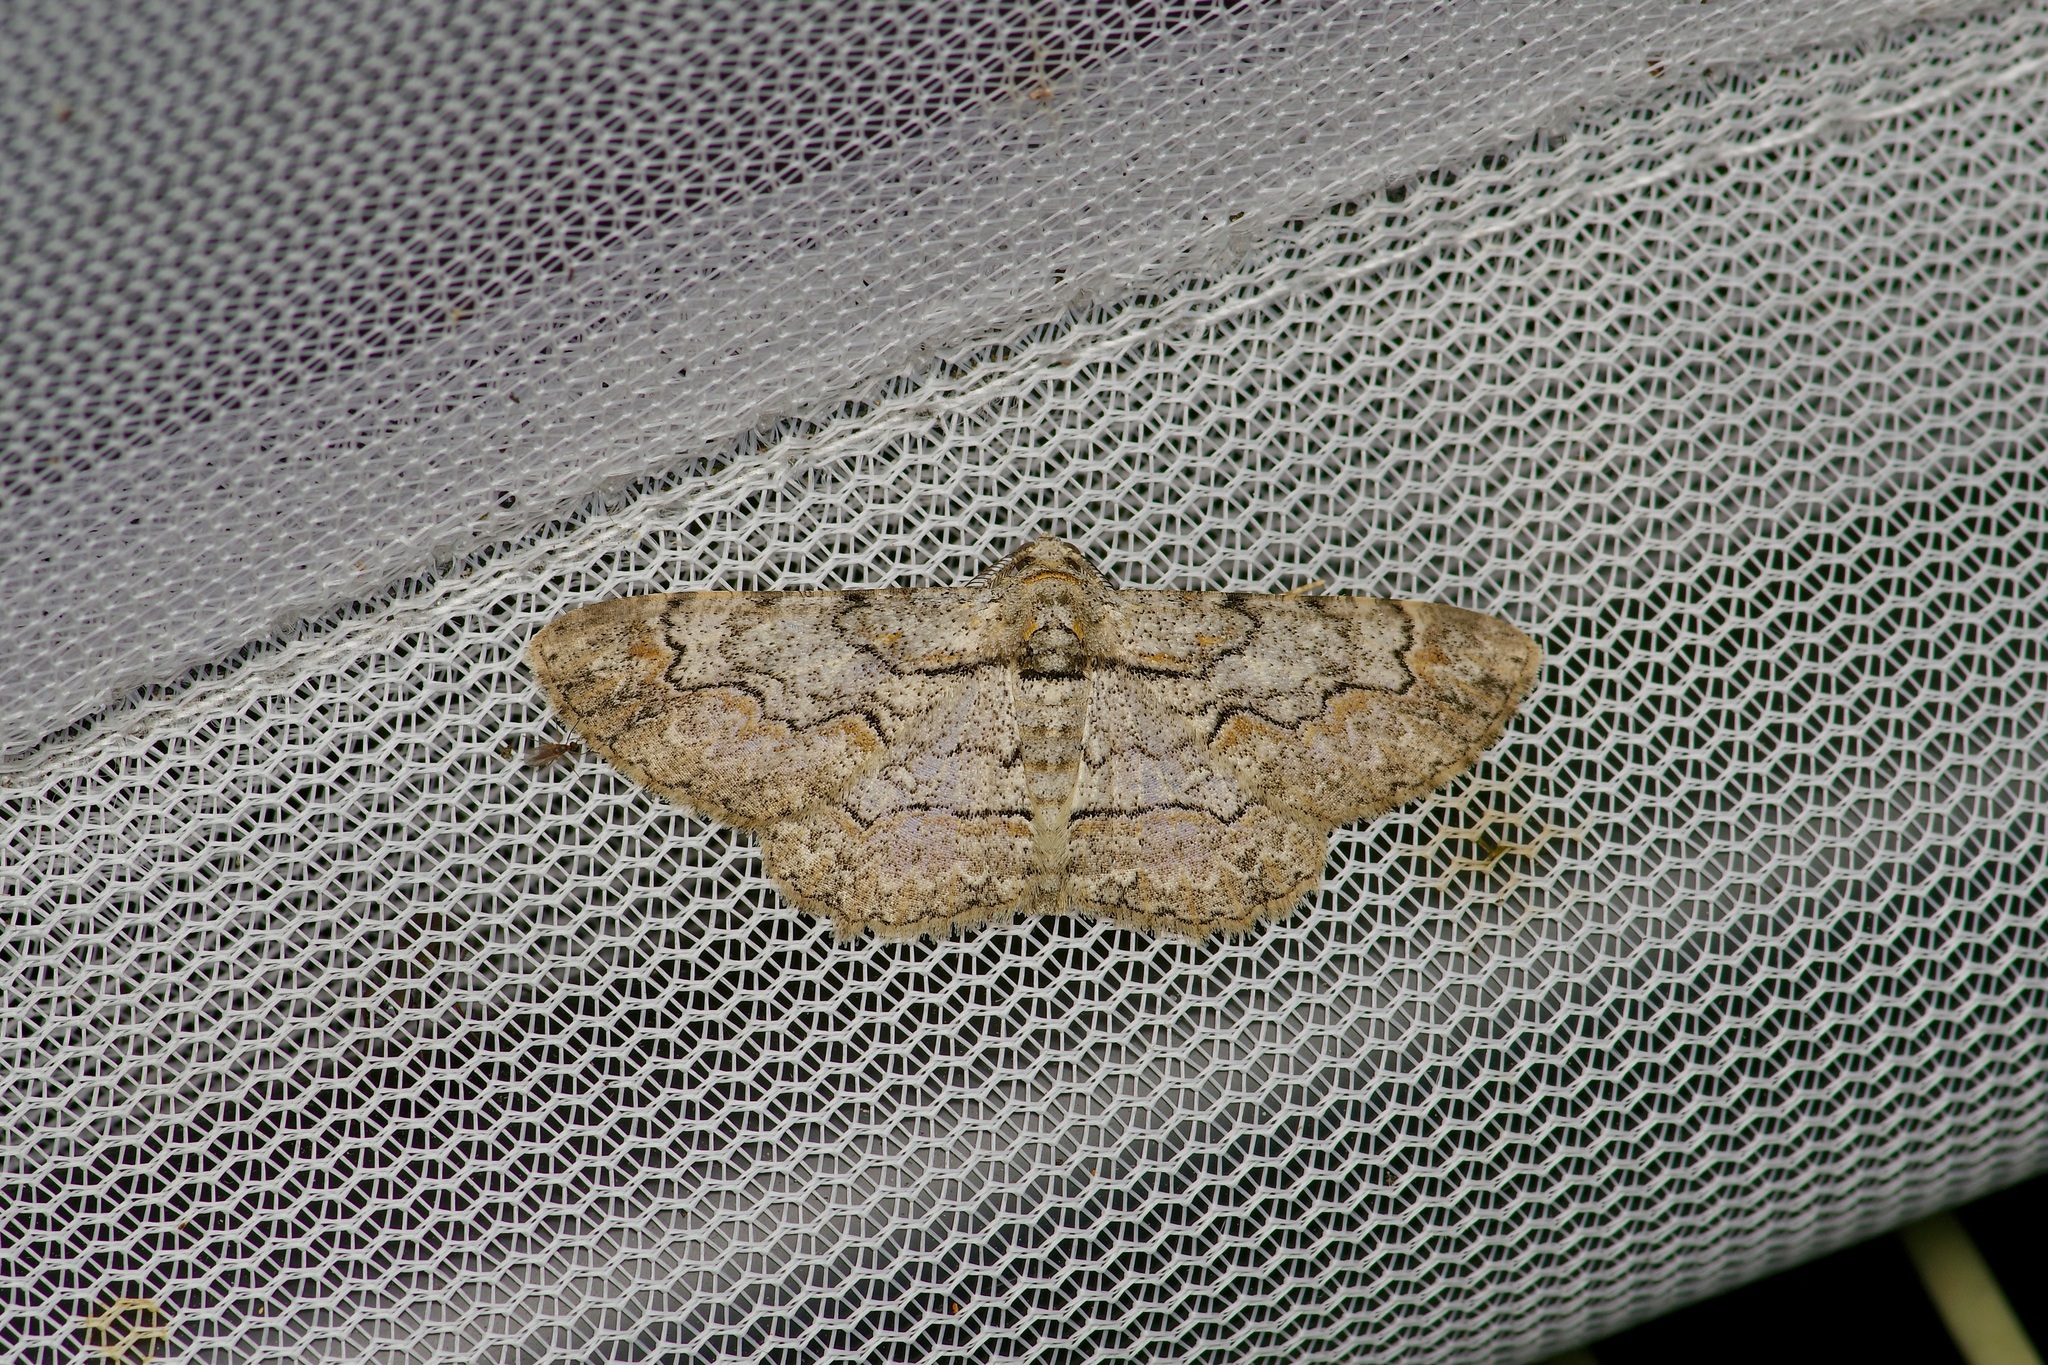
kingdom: Animalia
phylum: Arthropoda
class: Insecta
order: Lepidoptera
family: Geometridae
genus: Iridopsis
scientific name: Iridopsis defectaria
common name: Brown-shaded gray
